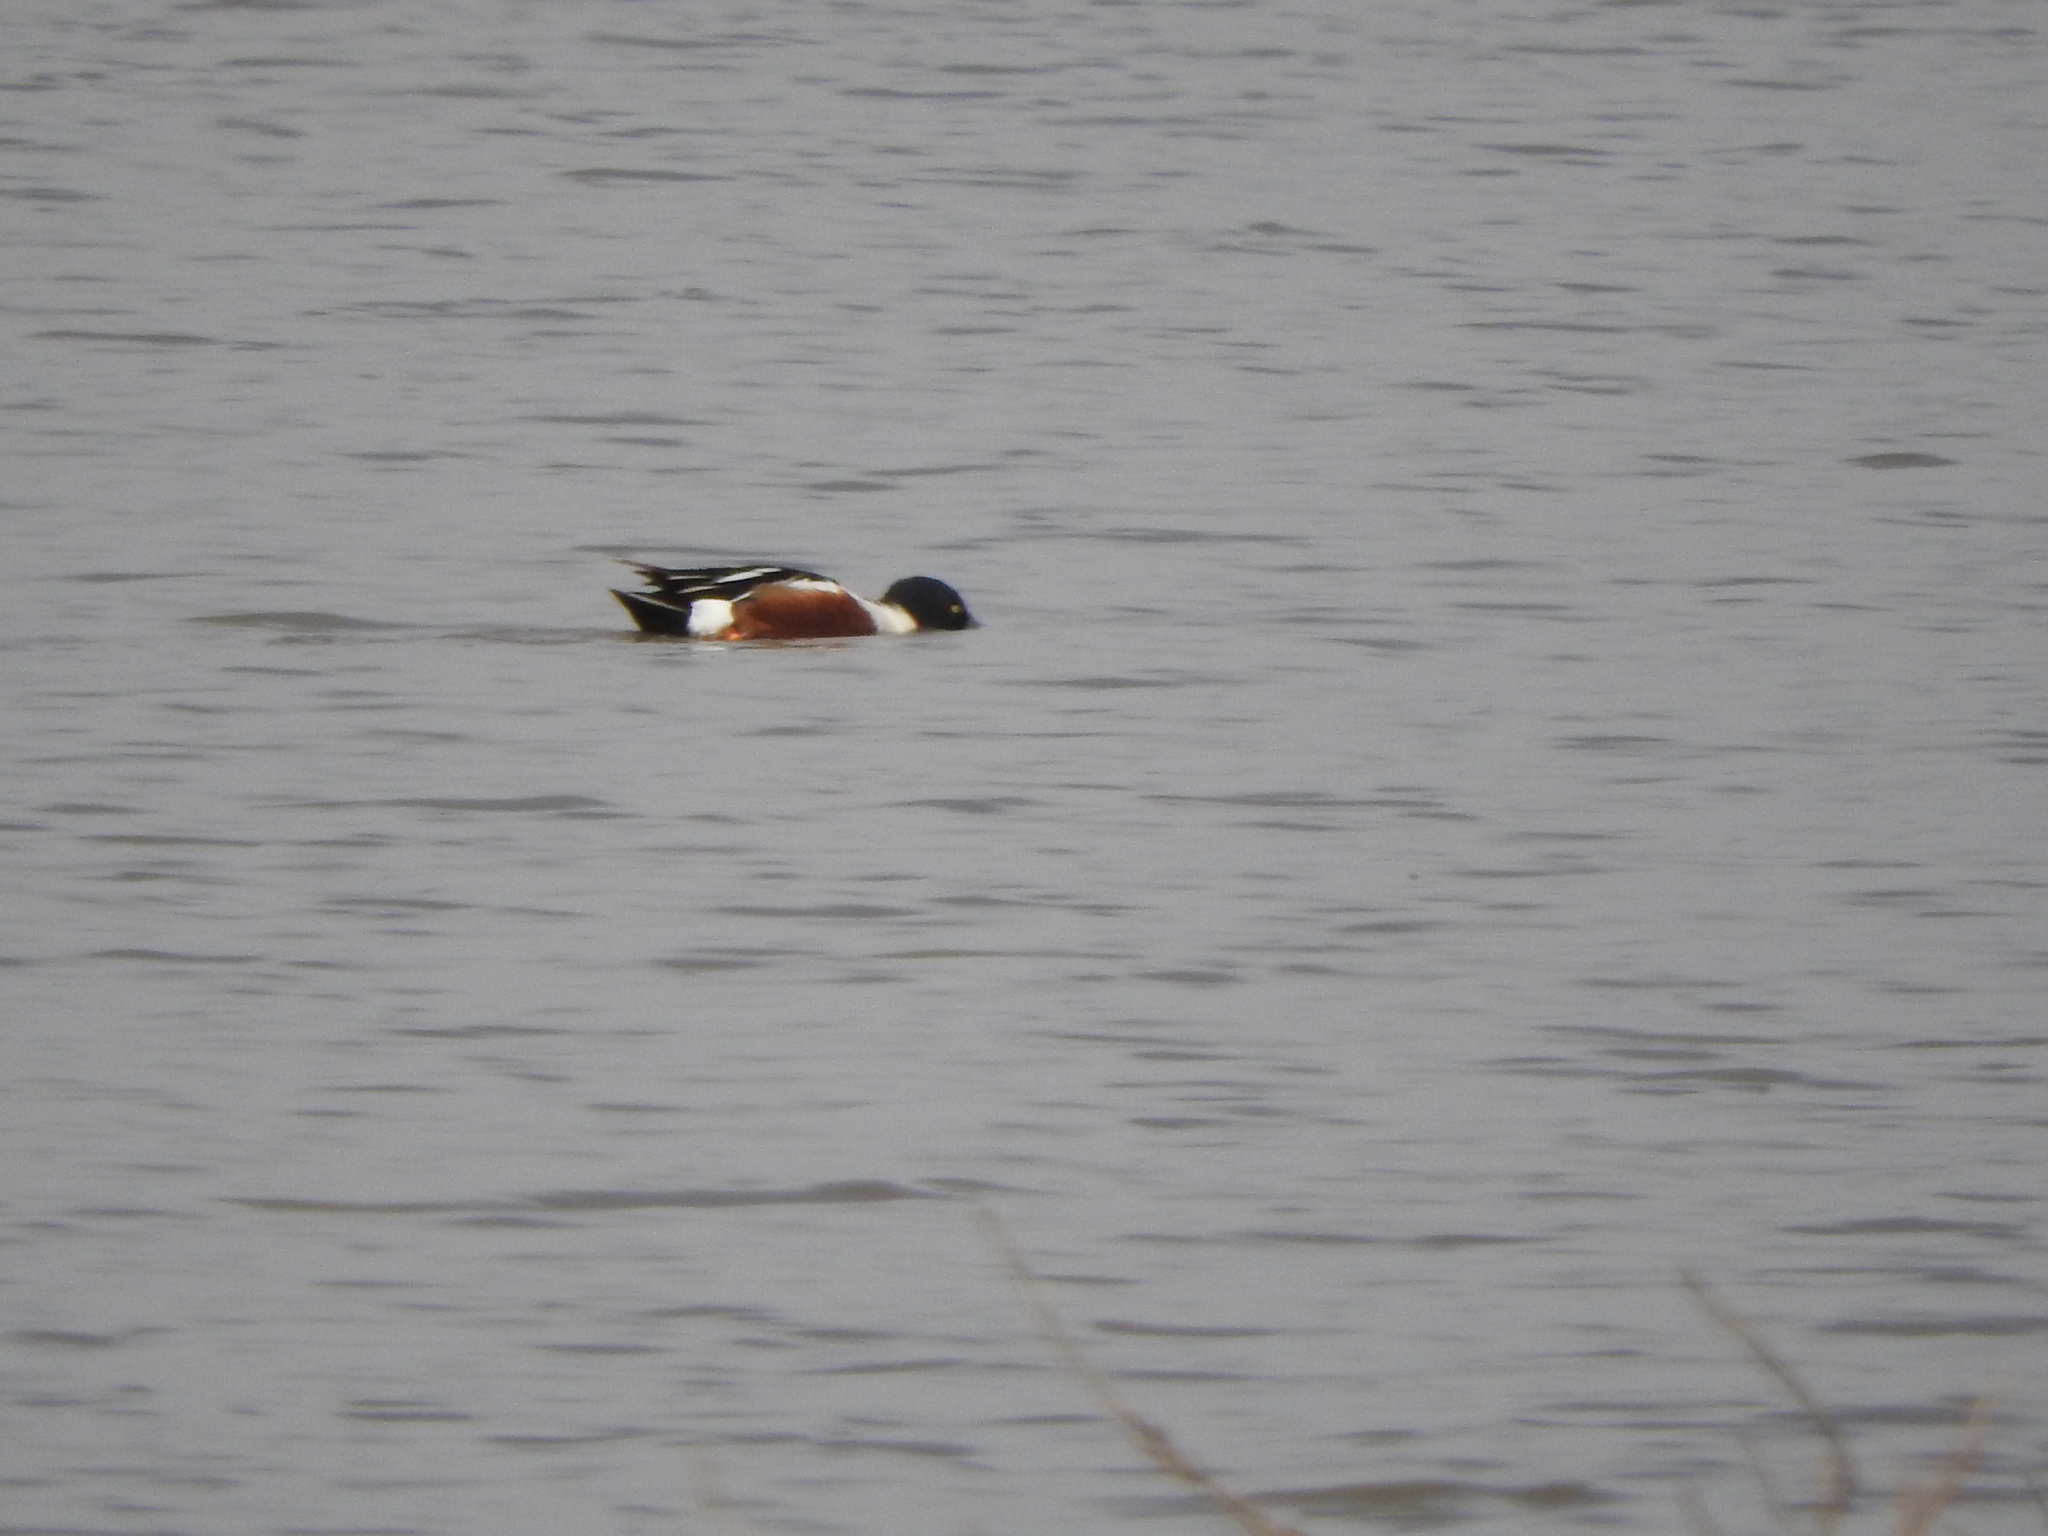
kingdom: Animalia
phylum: Chordata
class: Aves
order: Anseriformes
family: Anatidae
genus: Spatula
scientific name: Spatula clypeata
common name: Northern shoveler
